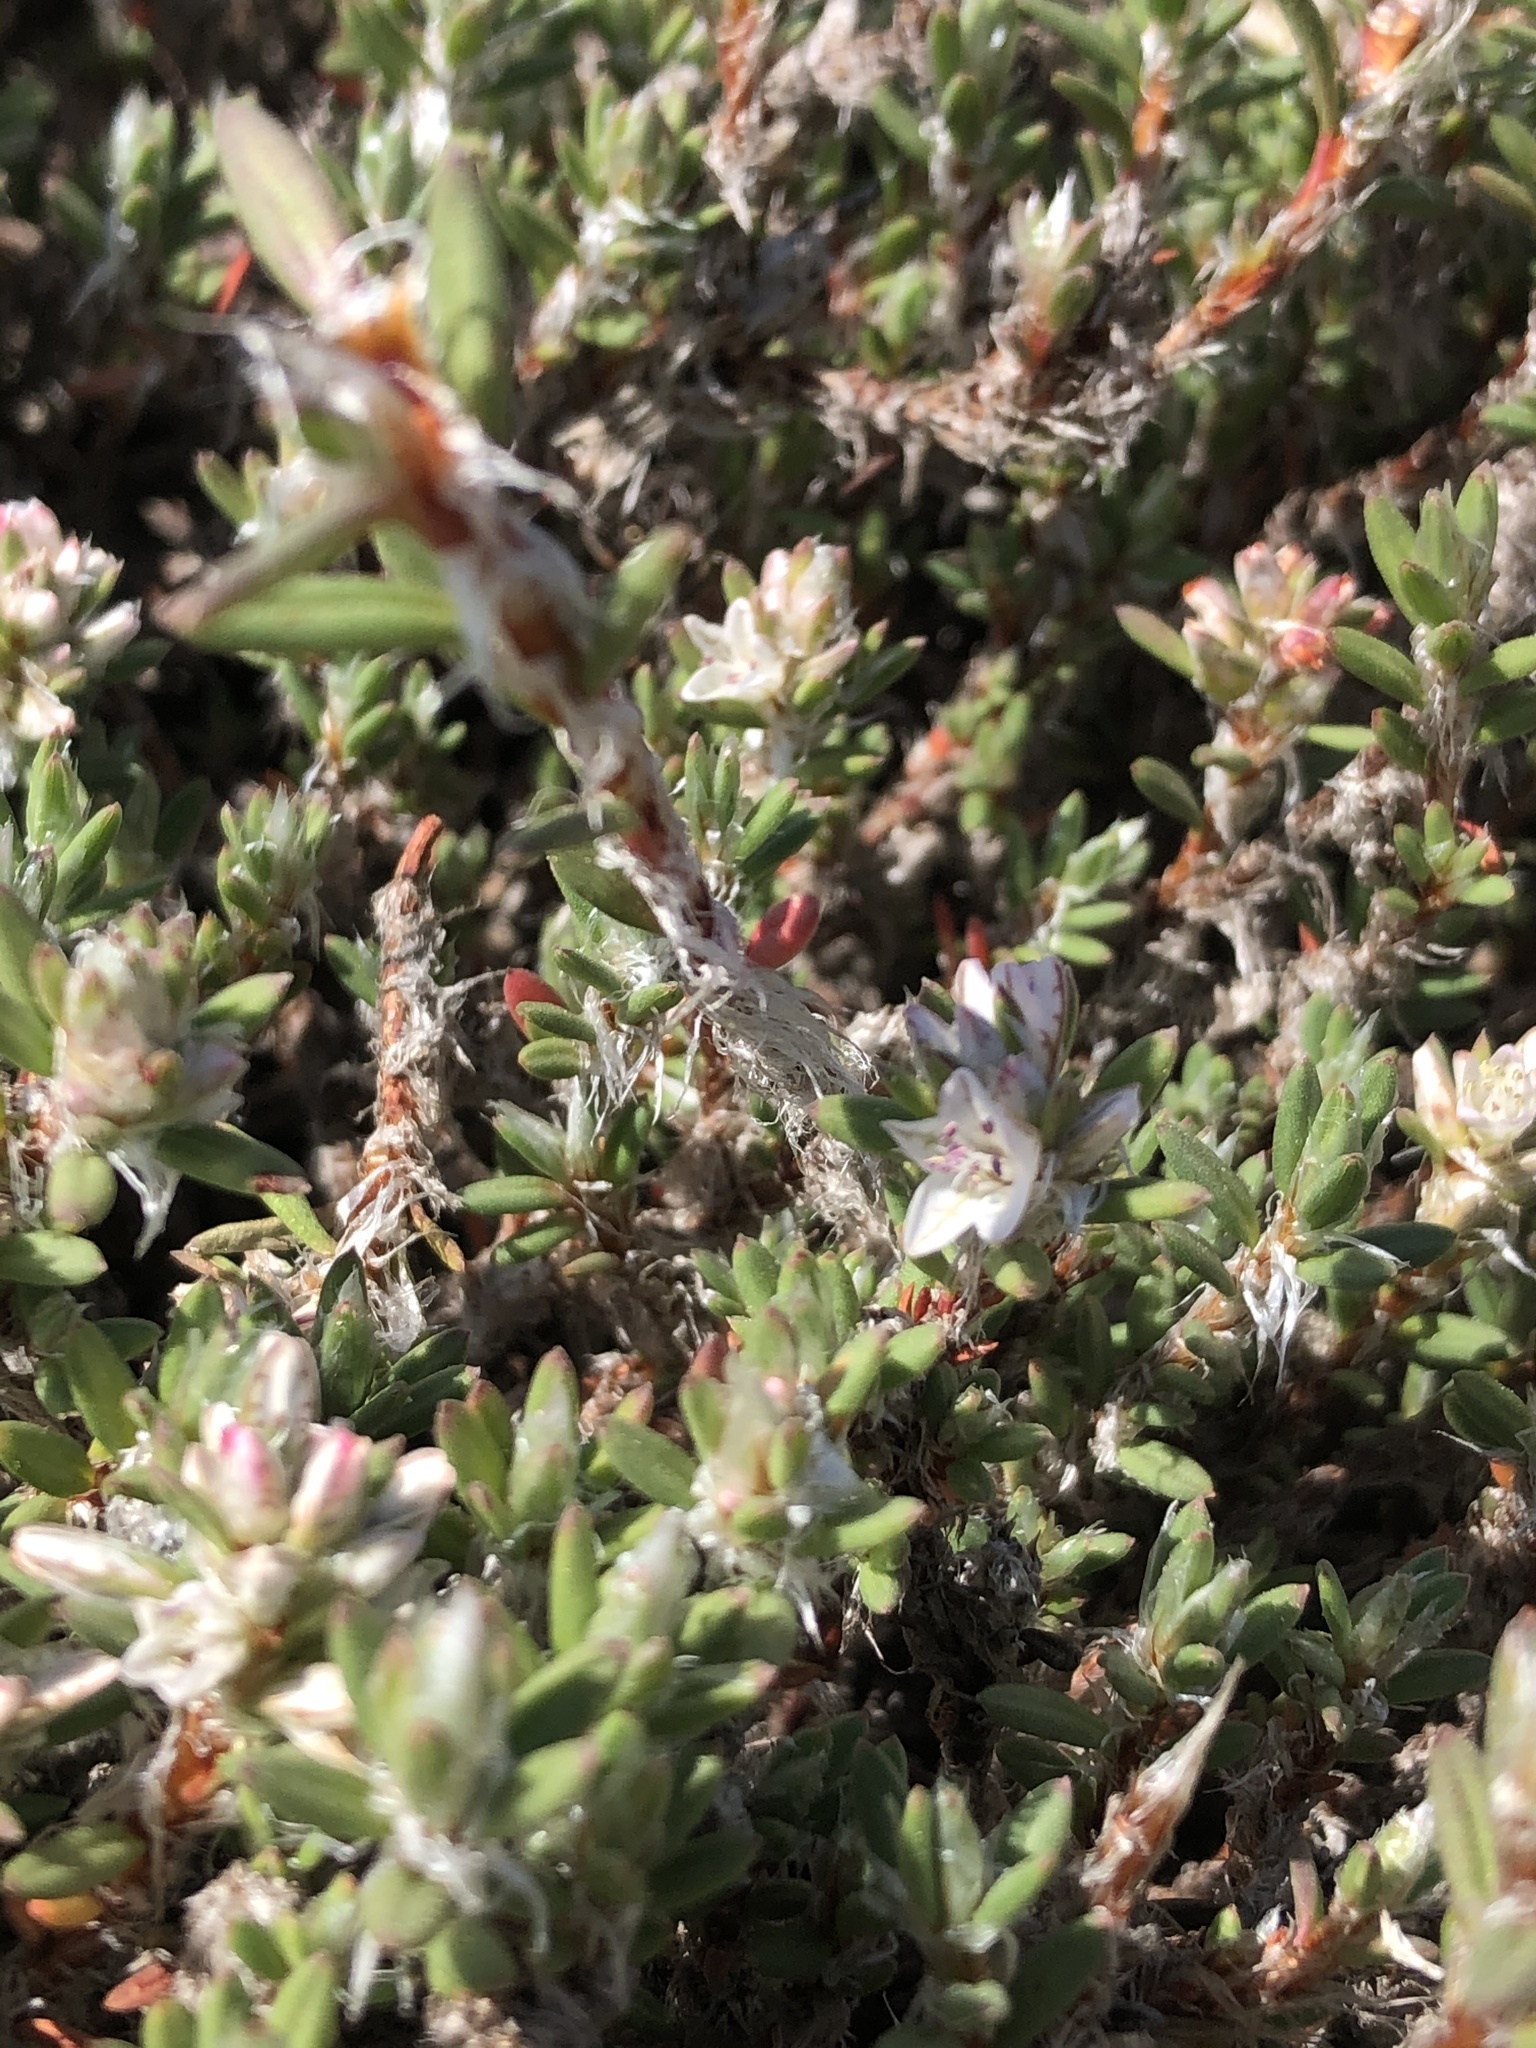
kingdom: Plantae
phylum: Tracheophyta
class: Magnoliopsida
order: Caryophyllales
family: Polygonaceae
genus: Polygonum
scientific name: Polygonum paronychia
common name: Dune knotweed
